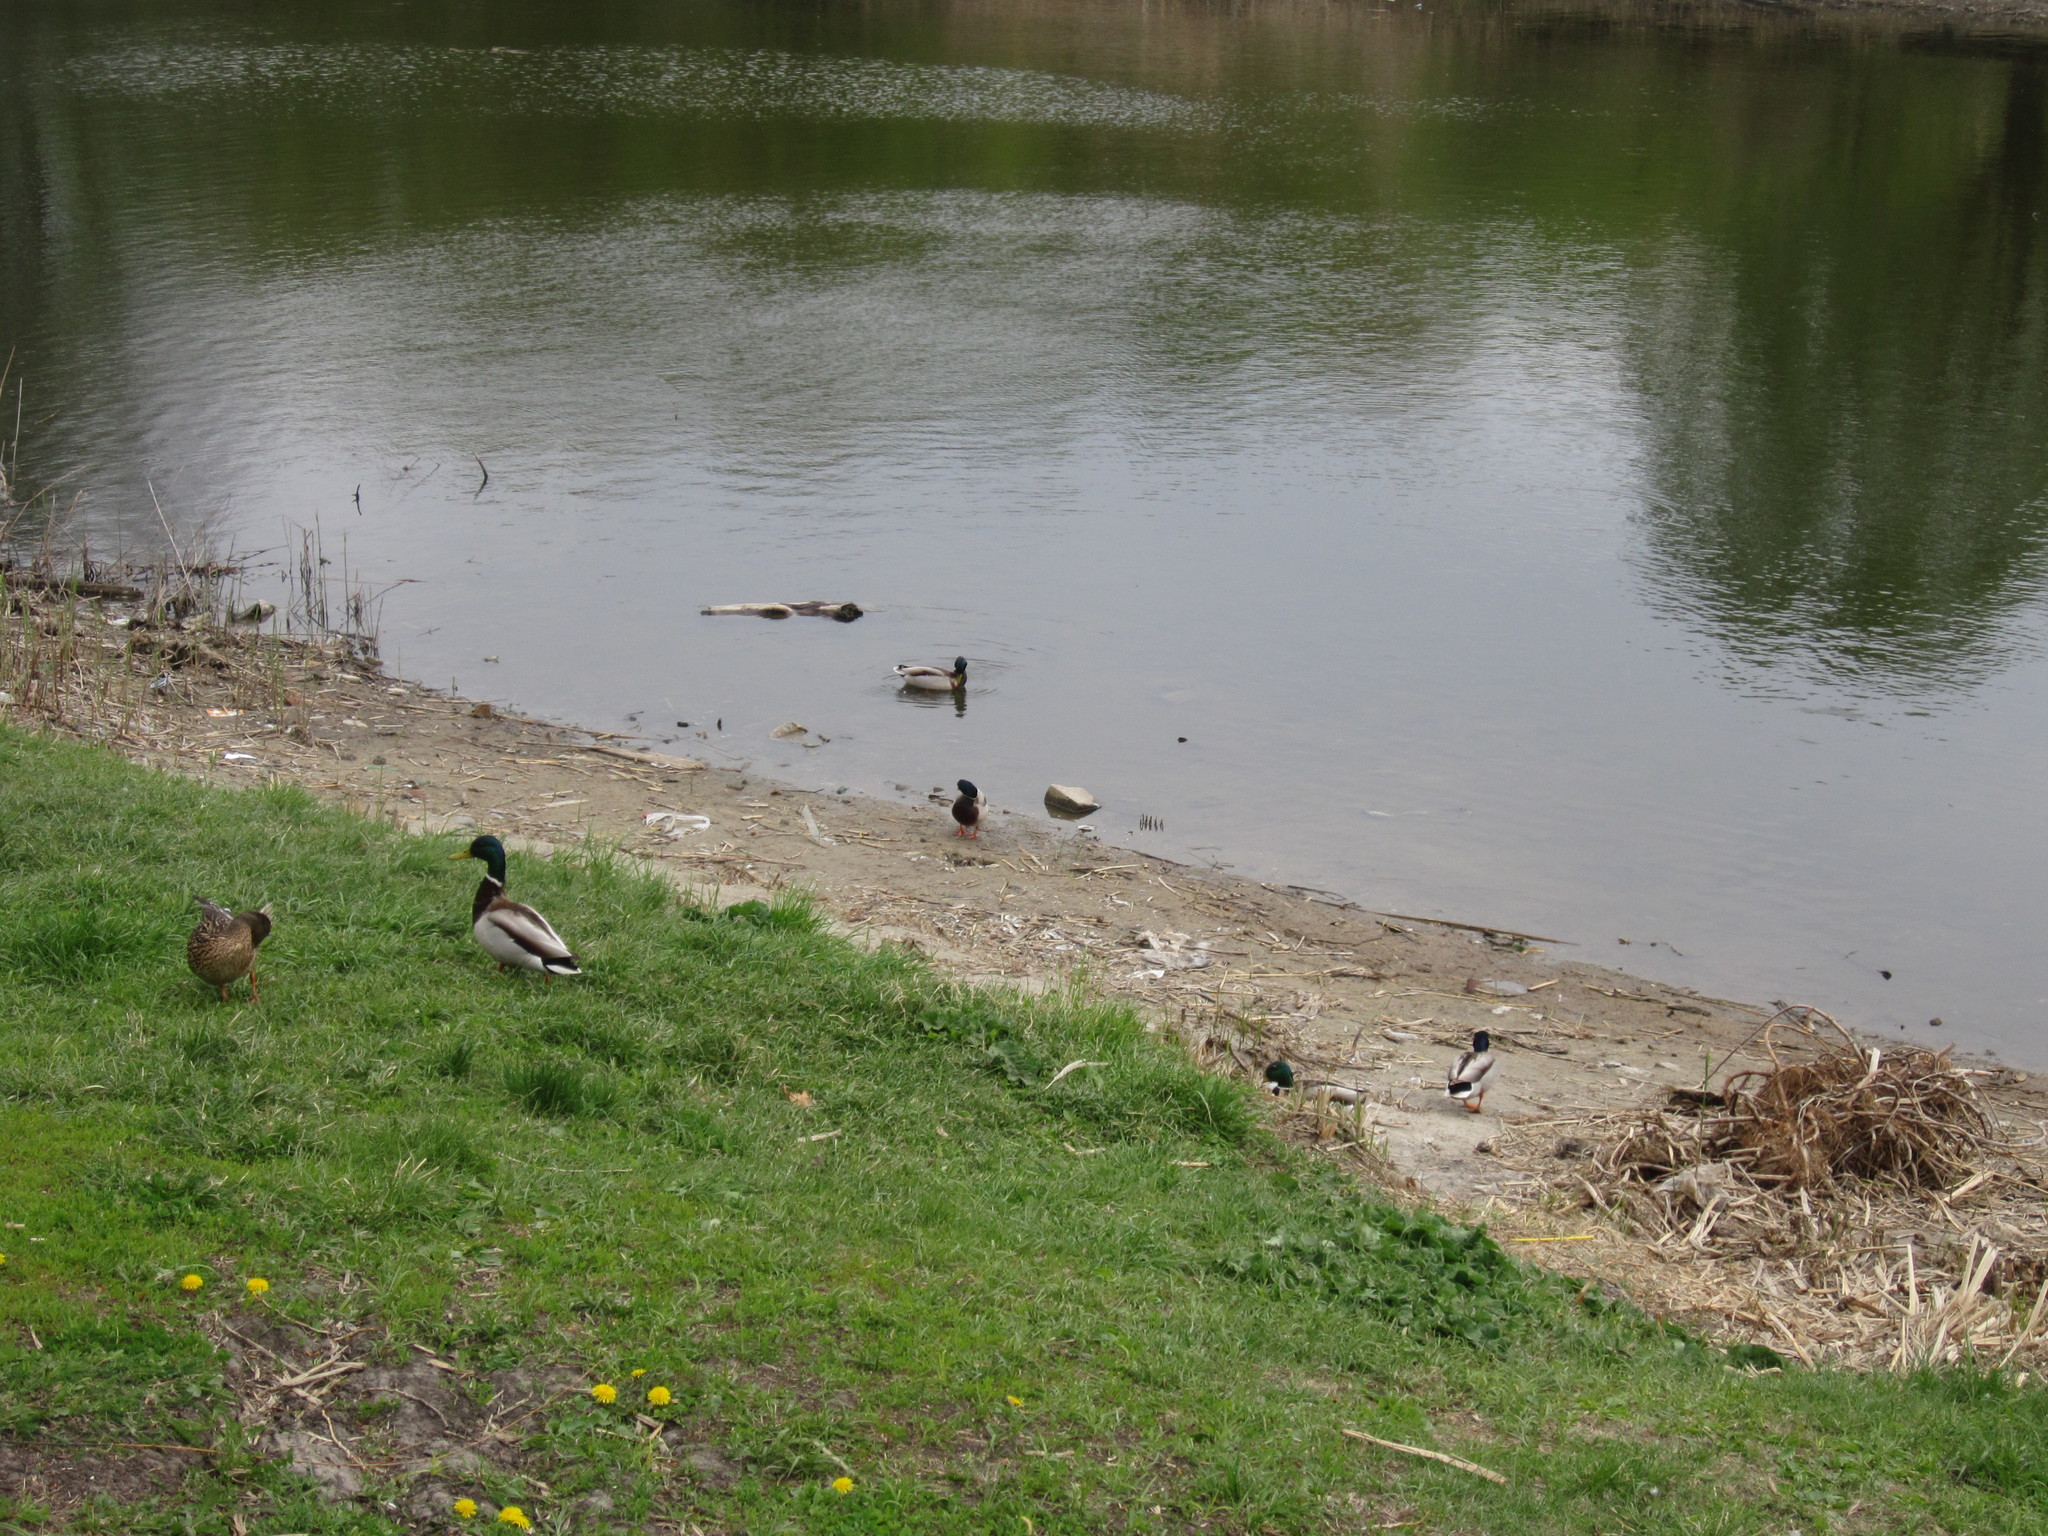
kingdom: Animalia
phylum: Chordata
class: Aves
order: Anseriformes
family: Anatidae
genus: Anas
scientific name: Anas platyrhynchos
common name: Mallard
